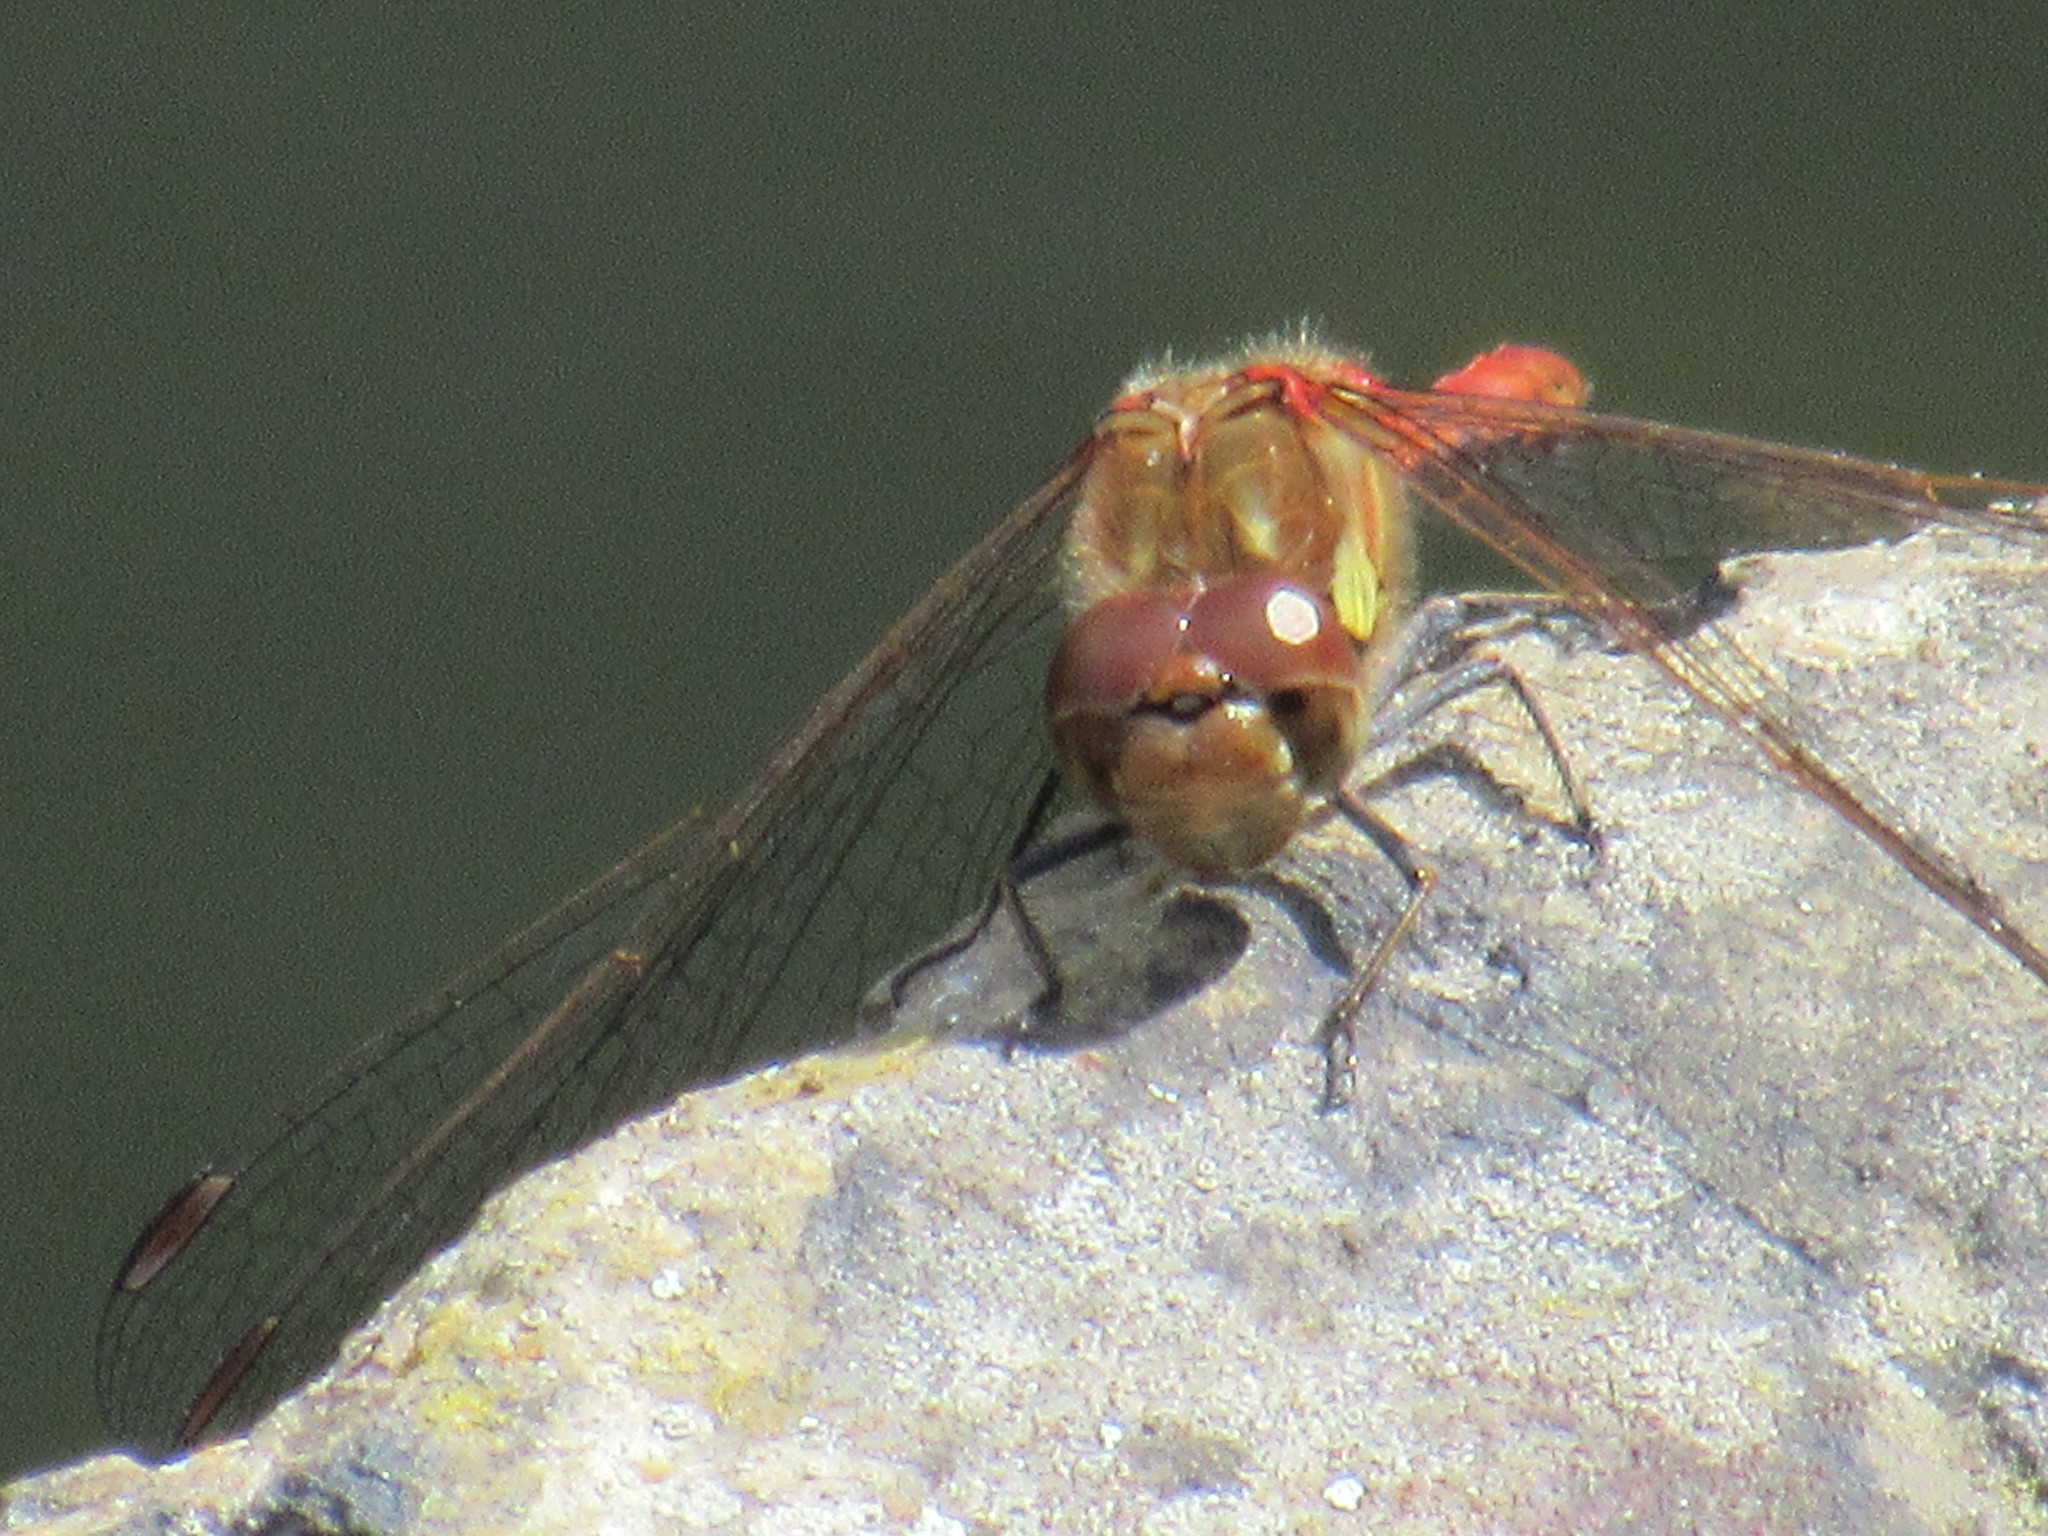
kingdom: Animalia
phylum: Arthropoda
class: Insecta
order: Odonata
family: Libellulidae
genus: Sympetrum
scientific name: Sympetrum striolatum
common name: Common darter
